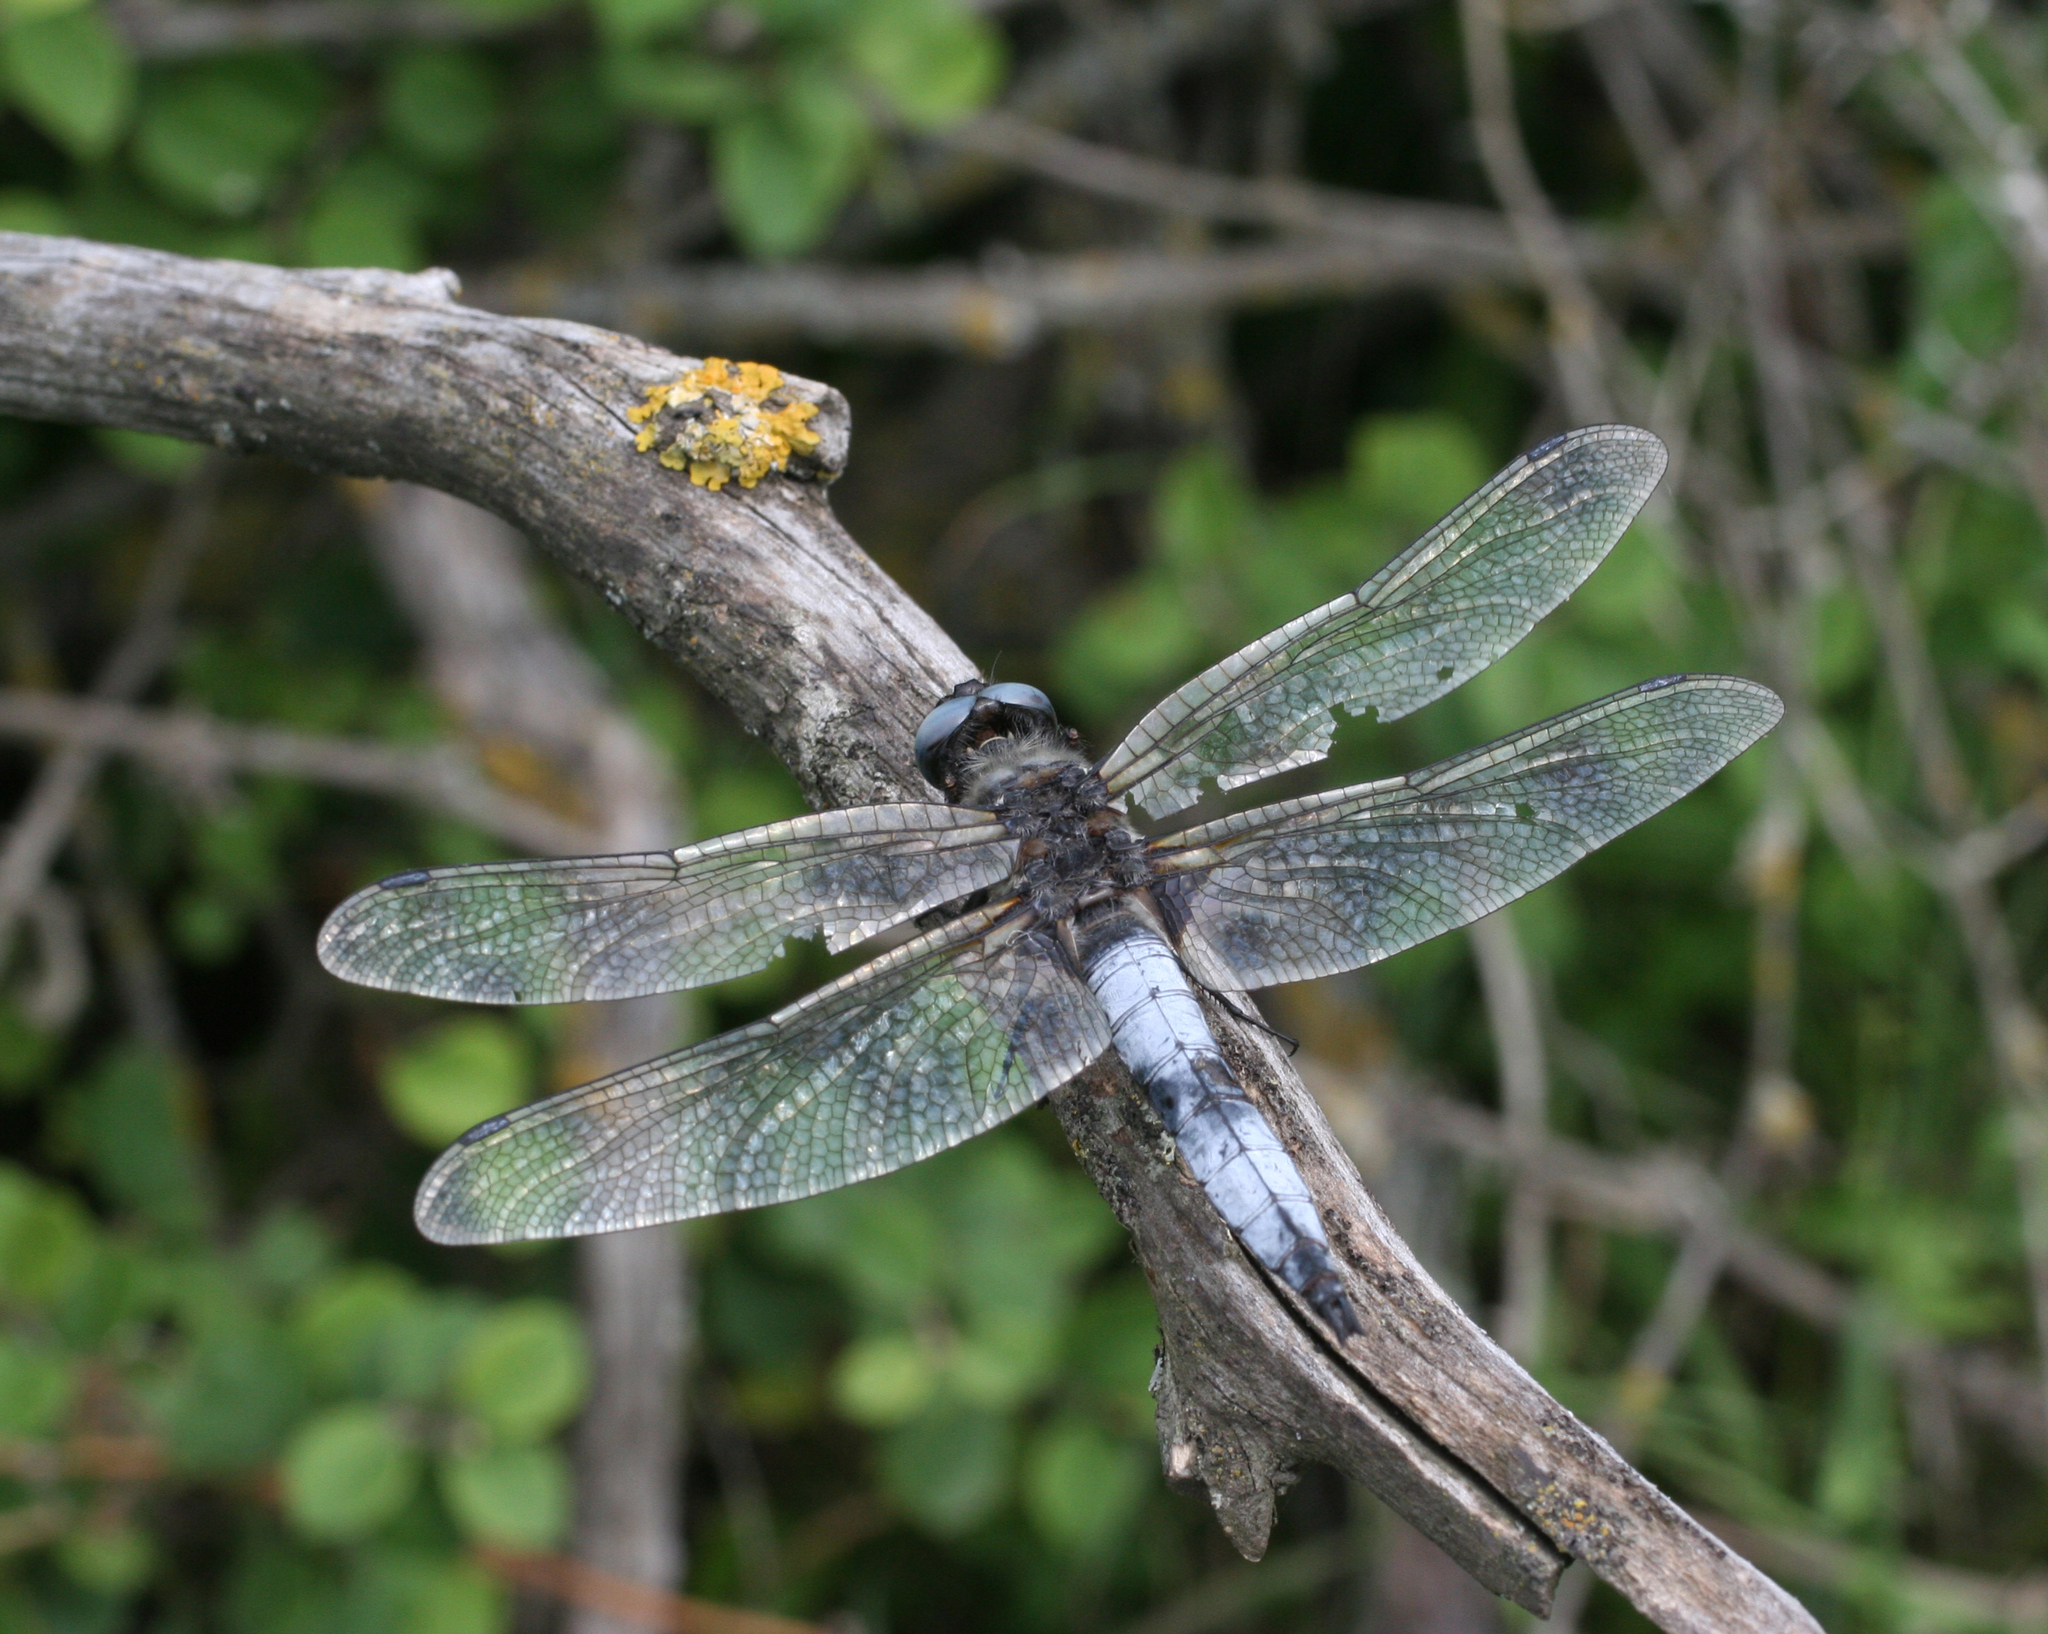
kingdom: Animalia
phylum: Arthropoda
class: Insecta
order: Odonata
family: Libellulidae
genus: Libellula
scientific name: Libellula fulva
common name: Blue chaser
